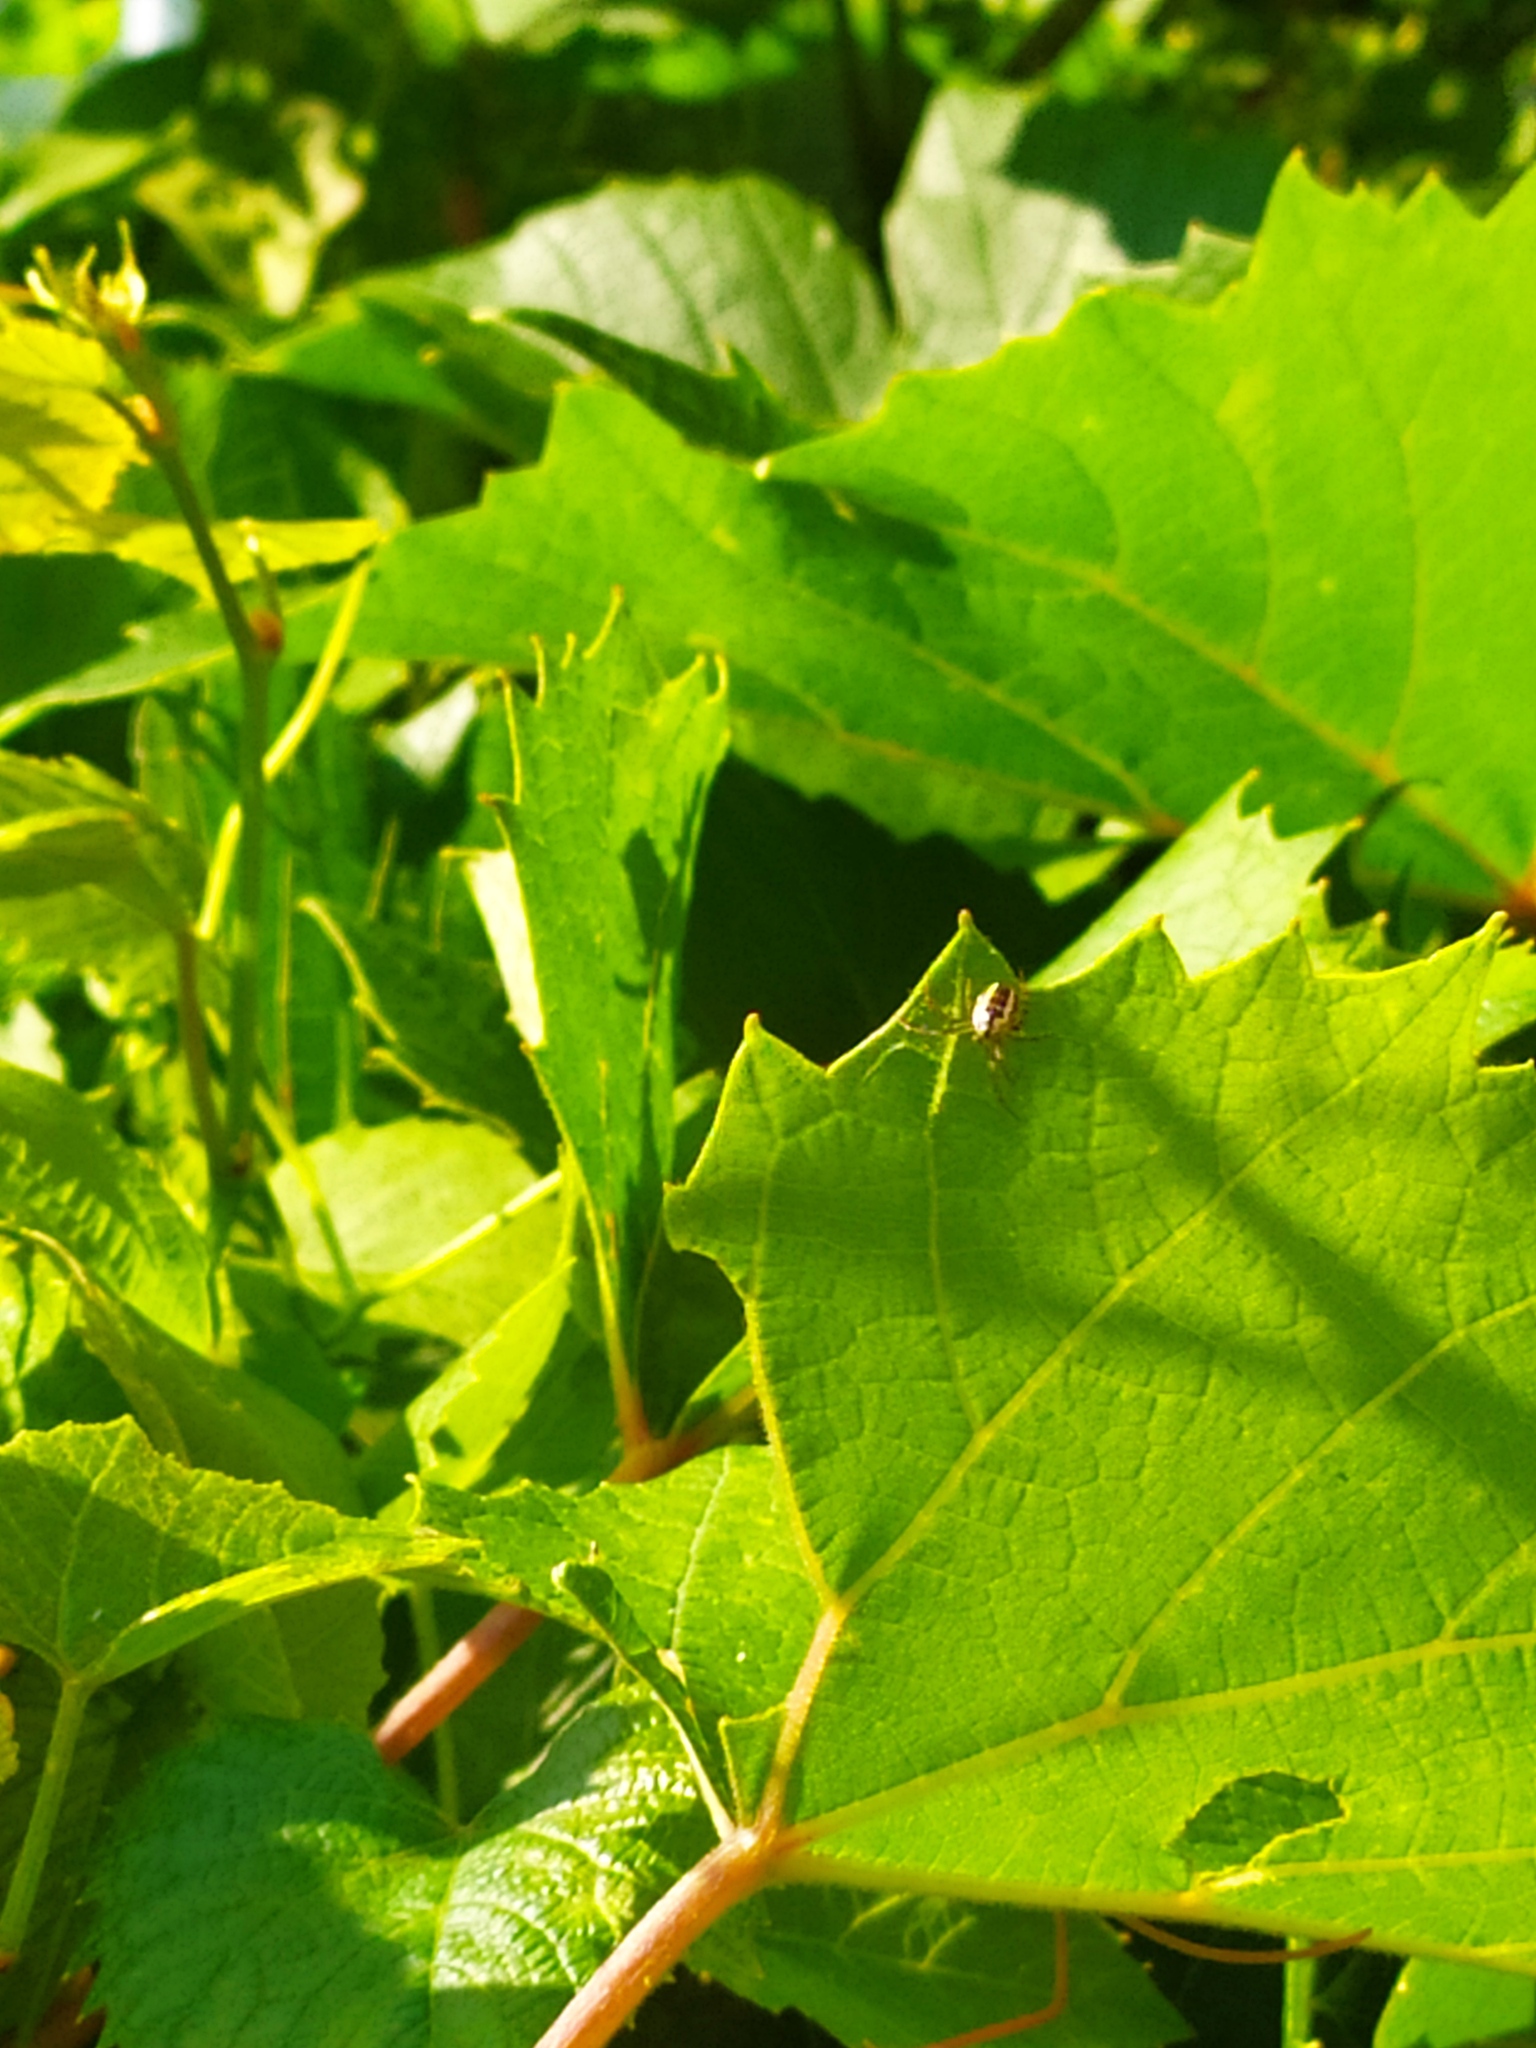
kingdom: Animalia
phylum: Arthropoda
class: Arachnida
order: Araneae
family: Araneidae
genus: Mangora
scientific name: Mangora acalypha
